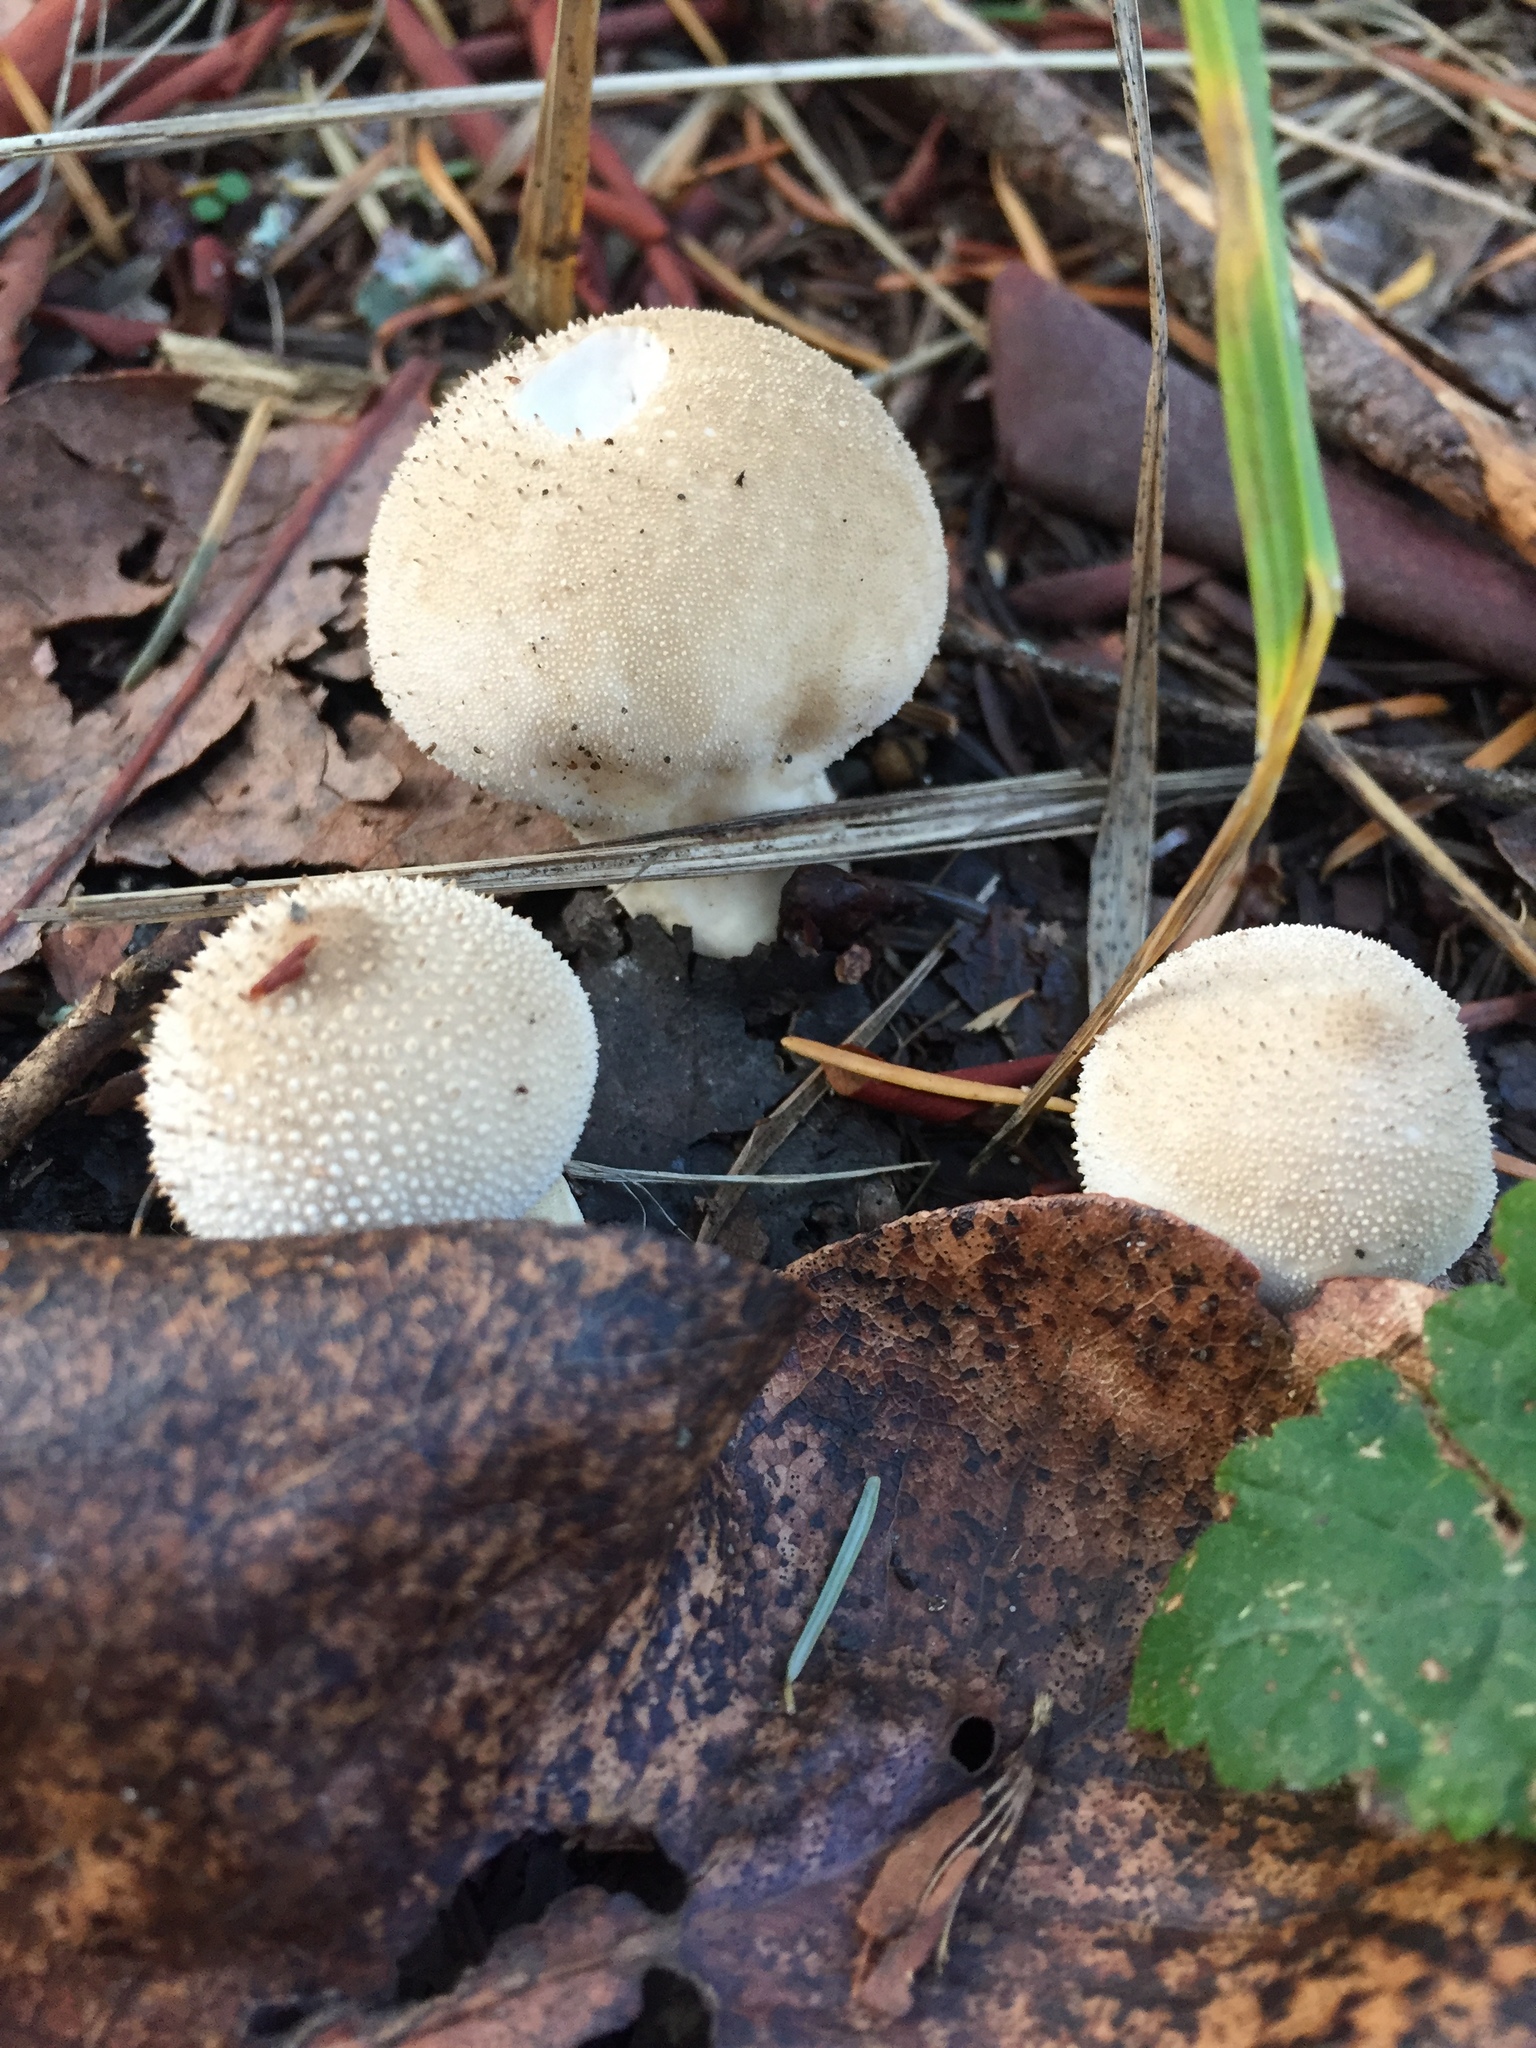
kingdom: Fungi
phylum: Basidiomycota
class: Agaricomycetes
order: Agaricales
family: Lycoperdaceae
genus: Lycoperdon
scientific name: Lycoperdon perlatum
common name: Common puffball
